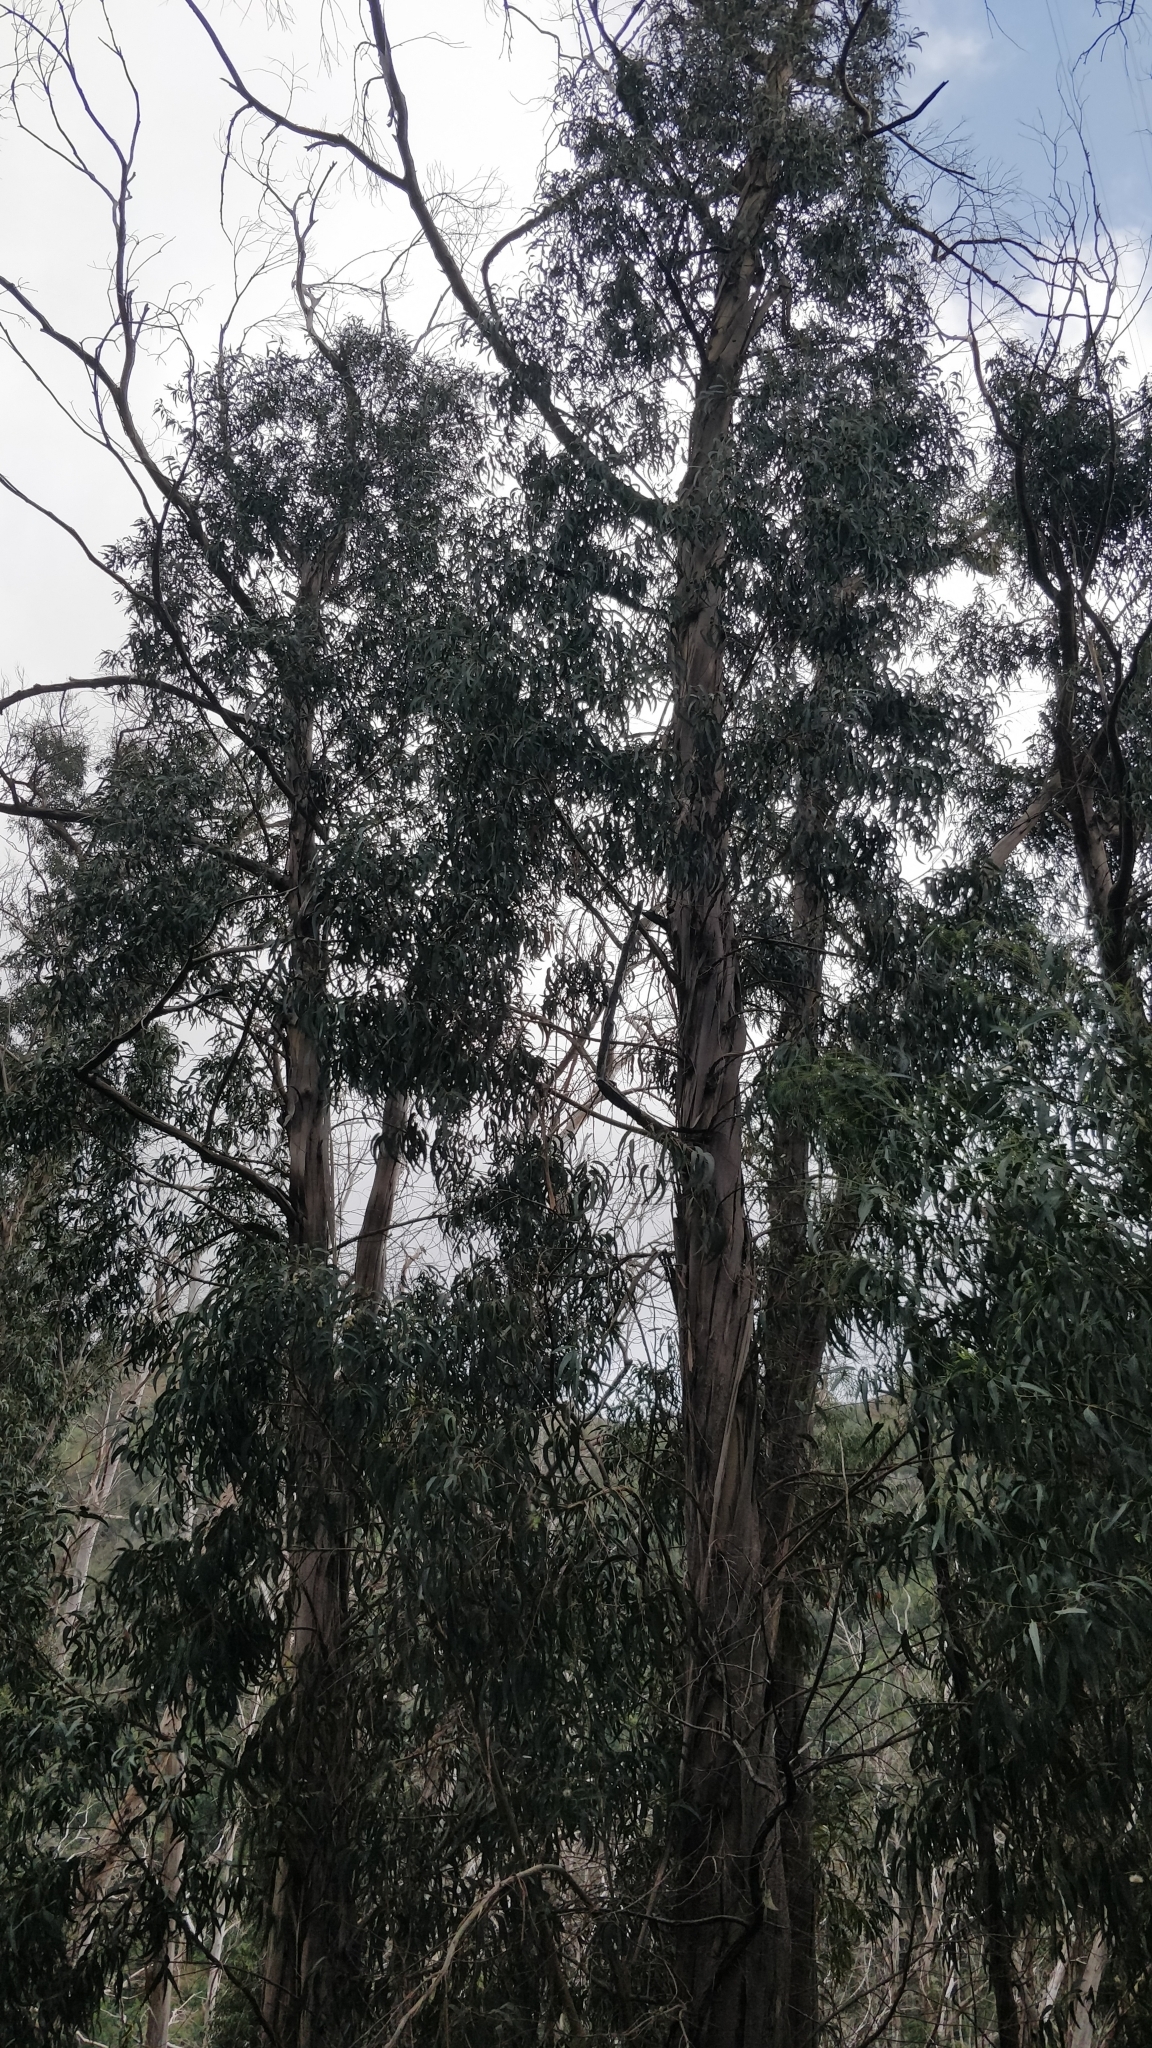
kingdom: Plantae
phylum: Tracheophyta
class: Magnoliopsida
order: Myrtales
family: Myrtaceae
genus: Eucalyptus
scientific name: Eucalyptus globulus
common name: Southern blue-gum
